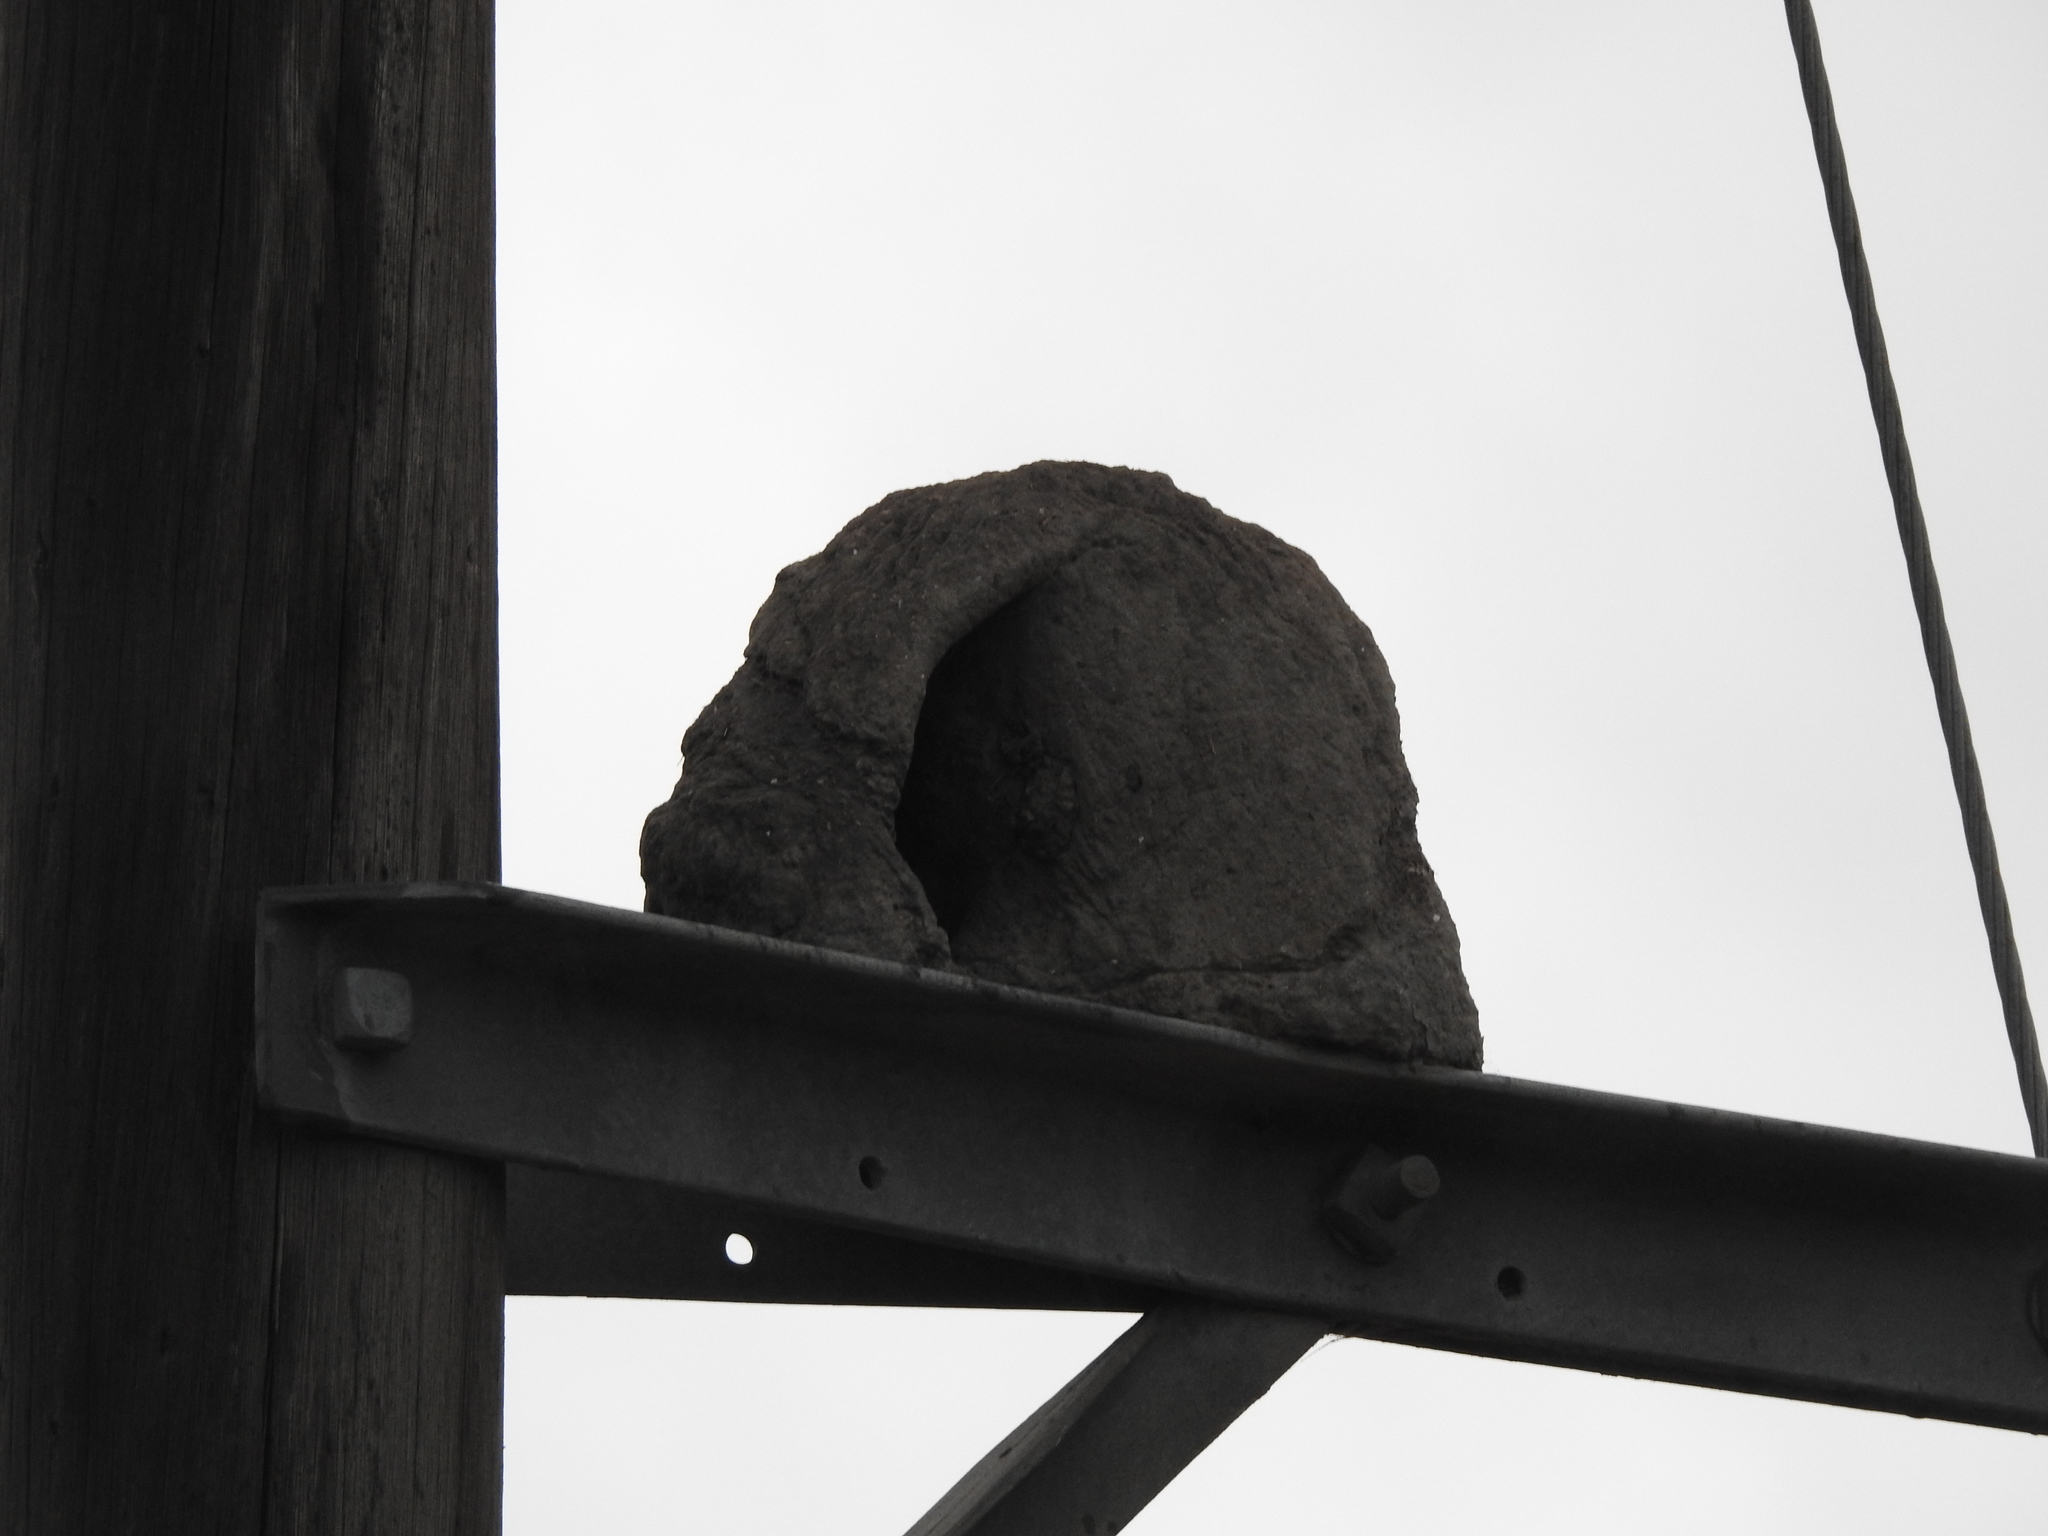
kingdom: Animalia
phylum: Chordata
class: Aves
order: Passeriformes
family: Furnariidae
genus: Furnarius
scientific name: Furnarius rufus
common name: Rufous hornero
